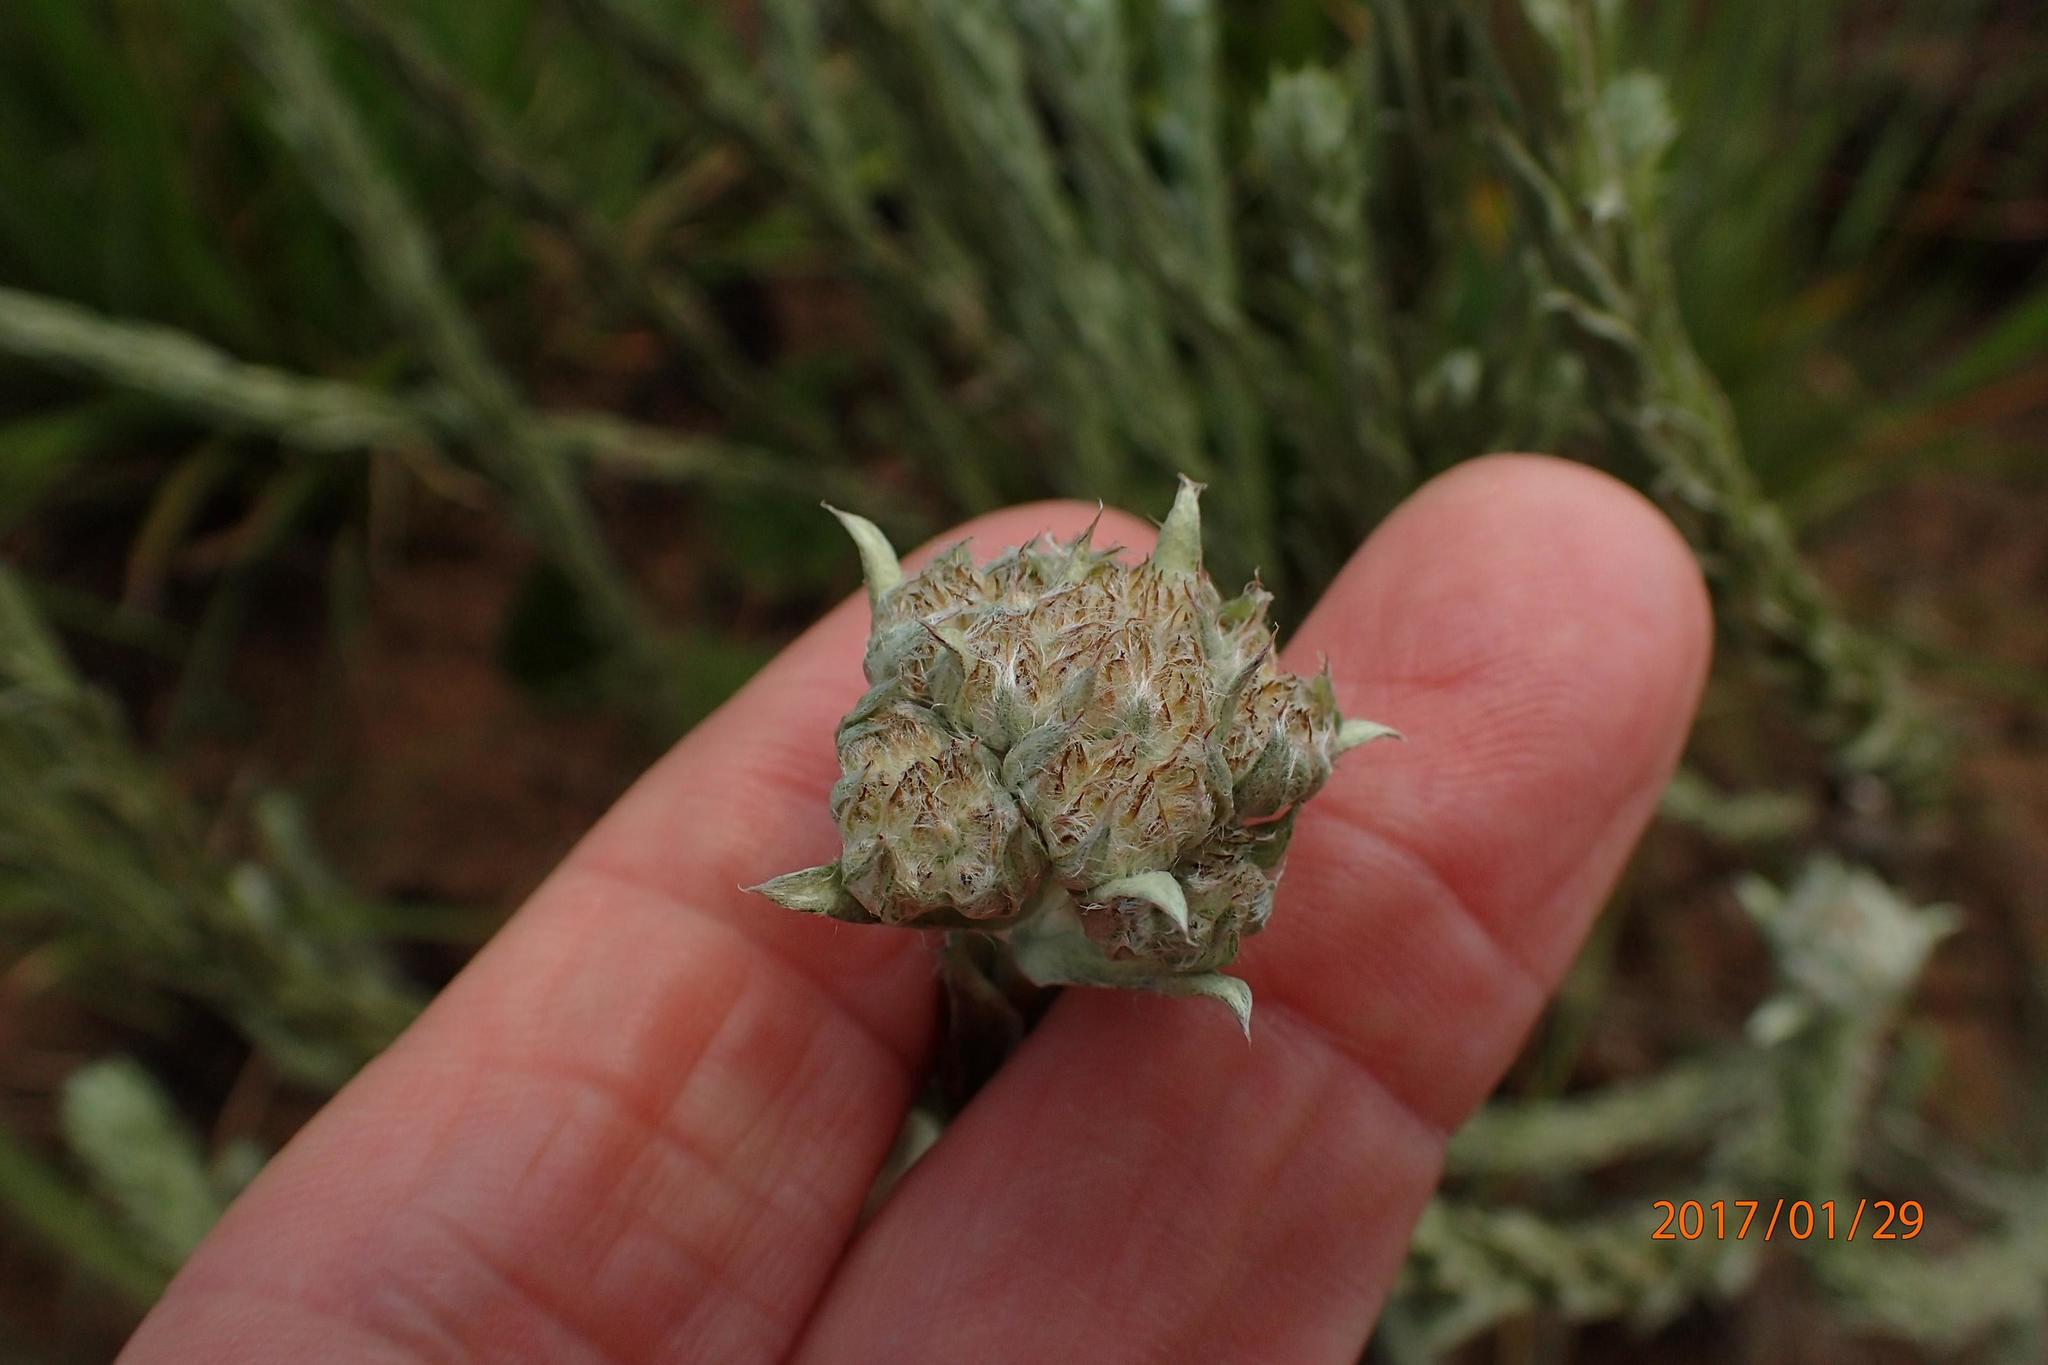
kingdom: Plantae
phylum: Tracheophyta
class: Magnoliopsida
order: Asterales
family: Asteraceae
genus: Helichrysum
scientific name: Helichrysum glomeratum
